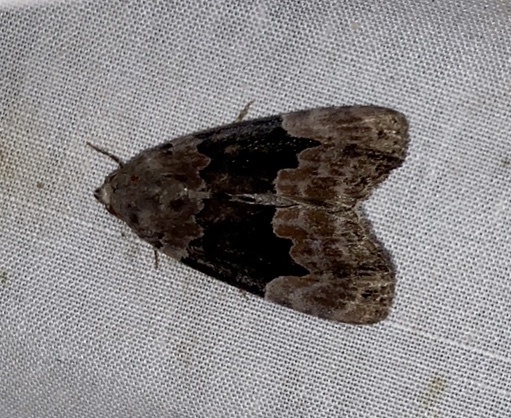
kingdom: Animalia
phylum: Arthropoda
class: Insecta
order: Lepidoptera
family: Erebidae
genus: Dinumma
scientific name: Dinumma deponens
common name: Purplish moth
